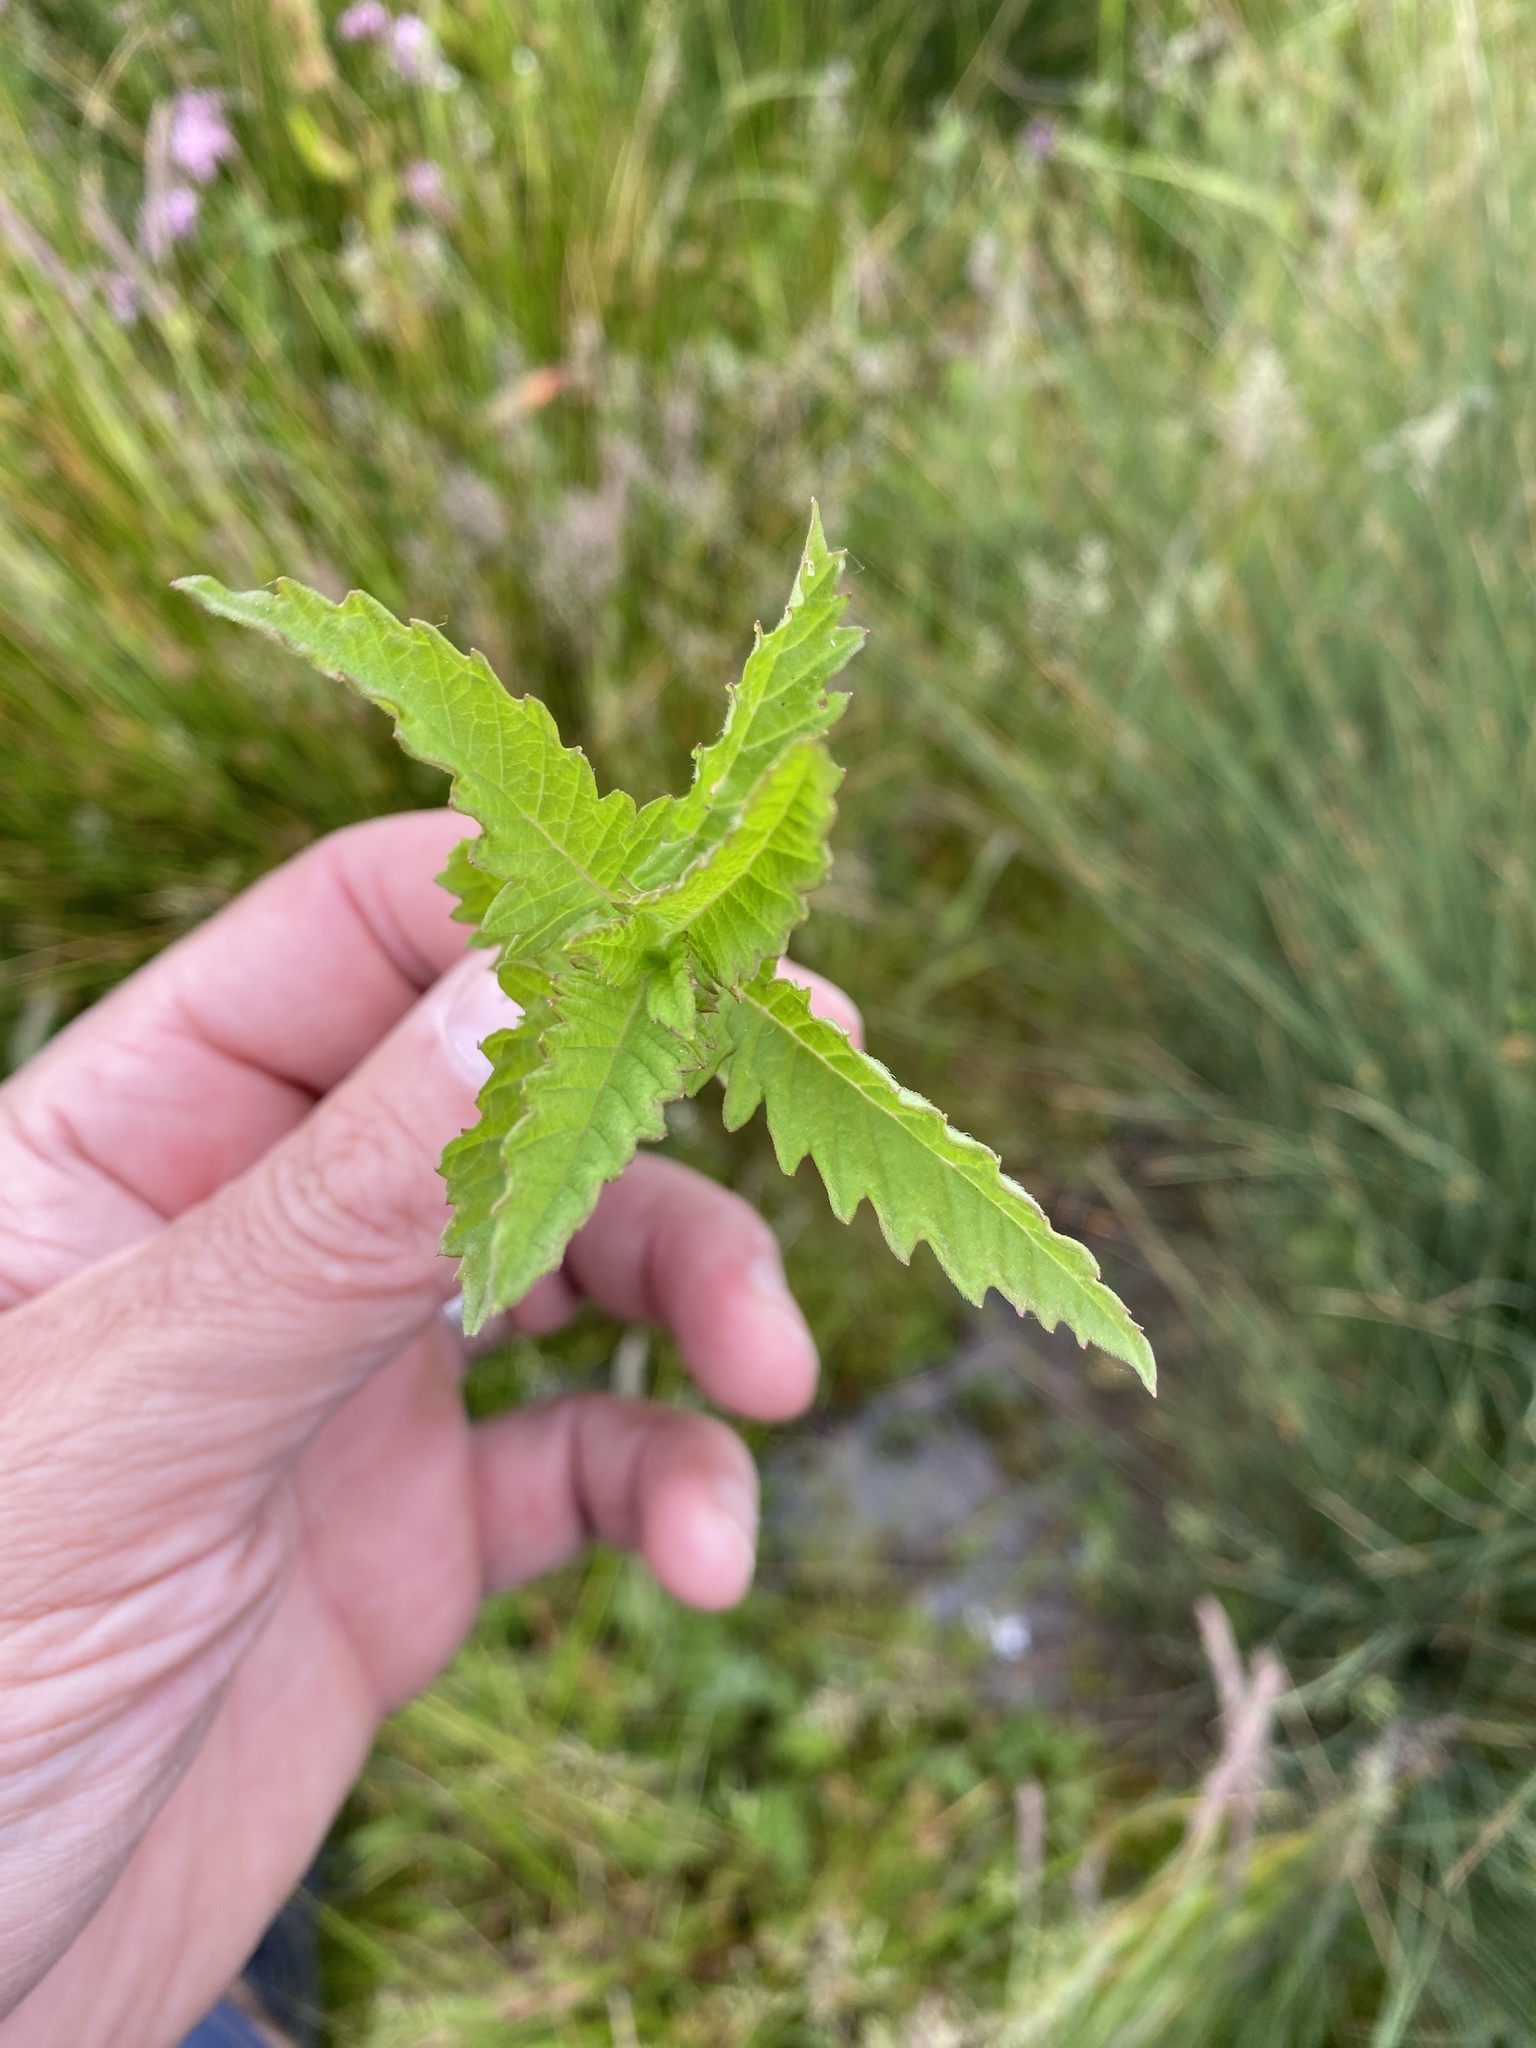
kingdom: Plantae
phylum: Tracheophyta
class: Magnoliopsida
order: Lamiales
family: Lamiaceae
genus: Lycopus
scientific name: Lycopus europaeus
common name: European bugleweed
